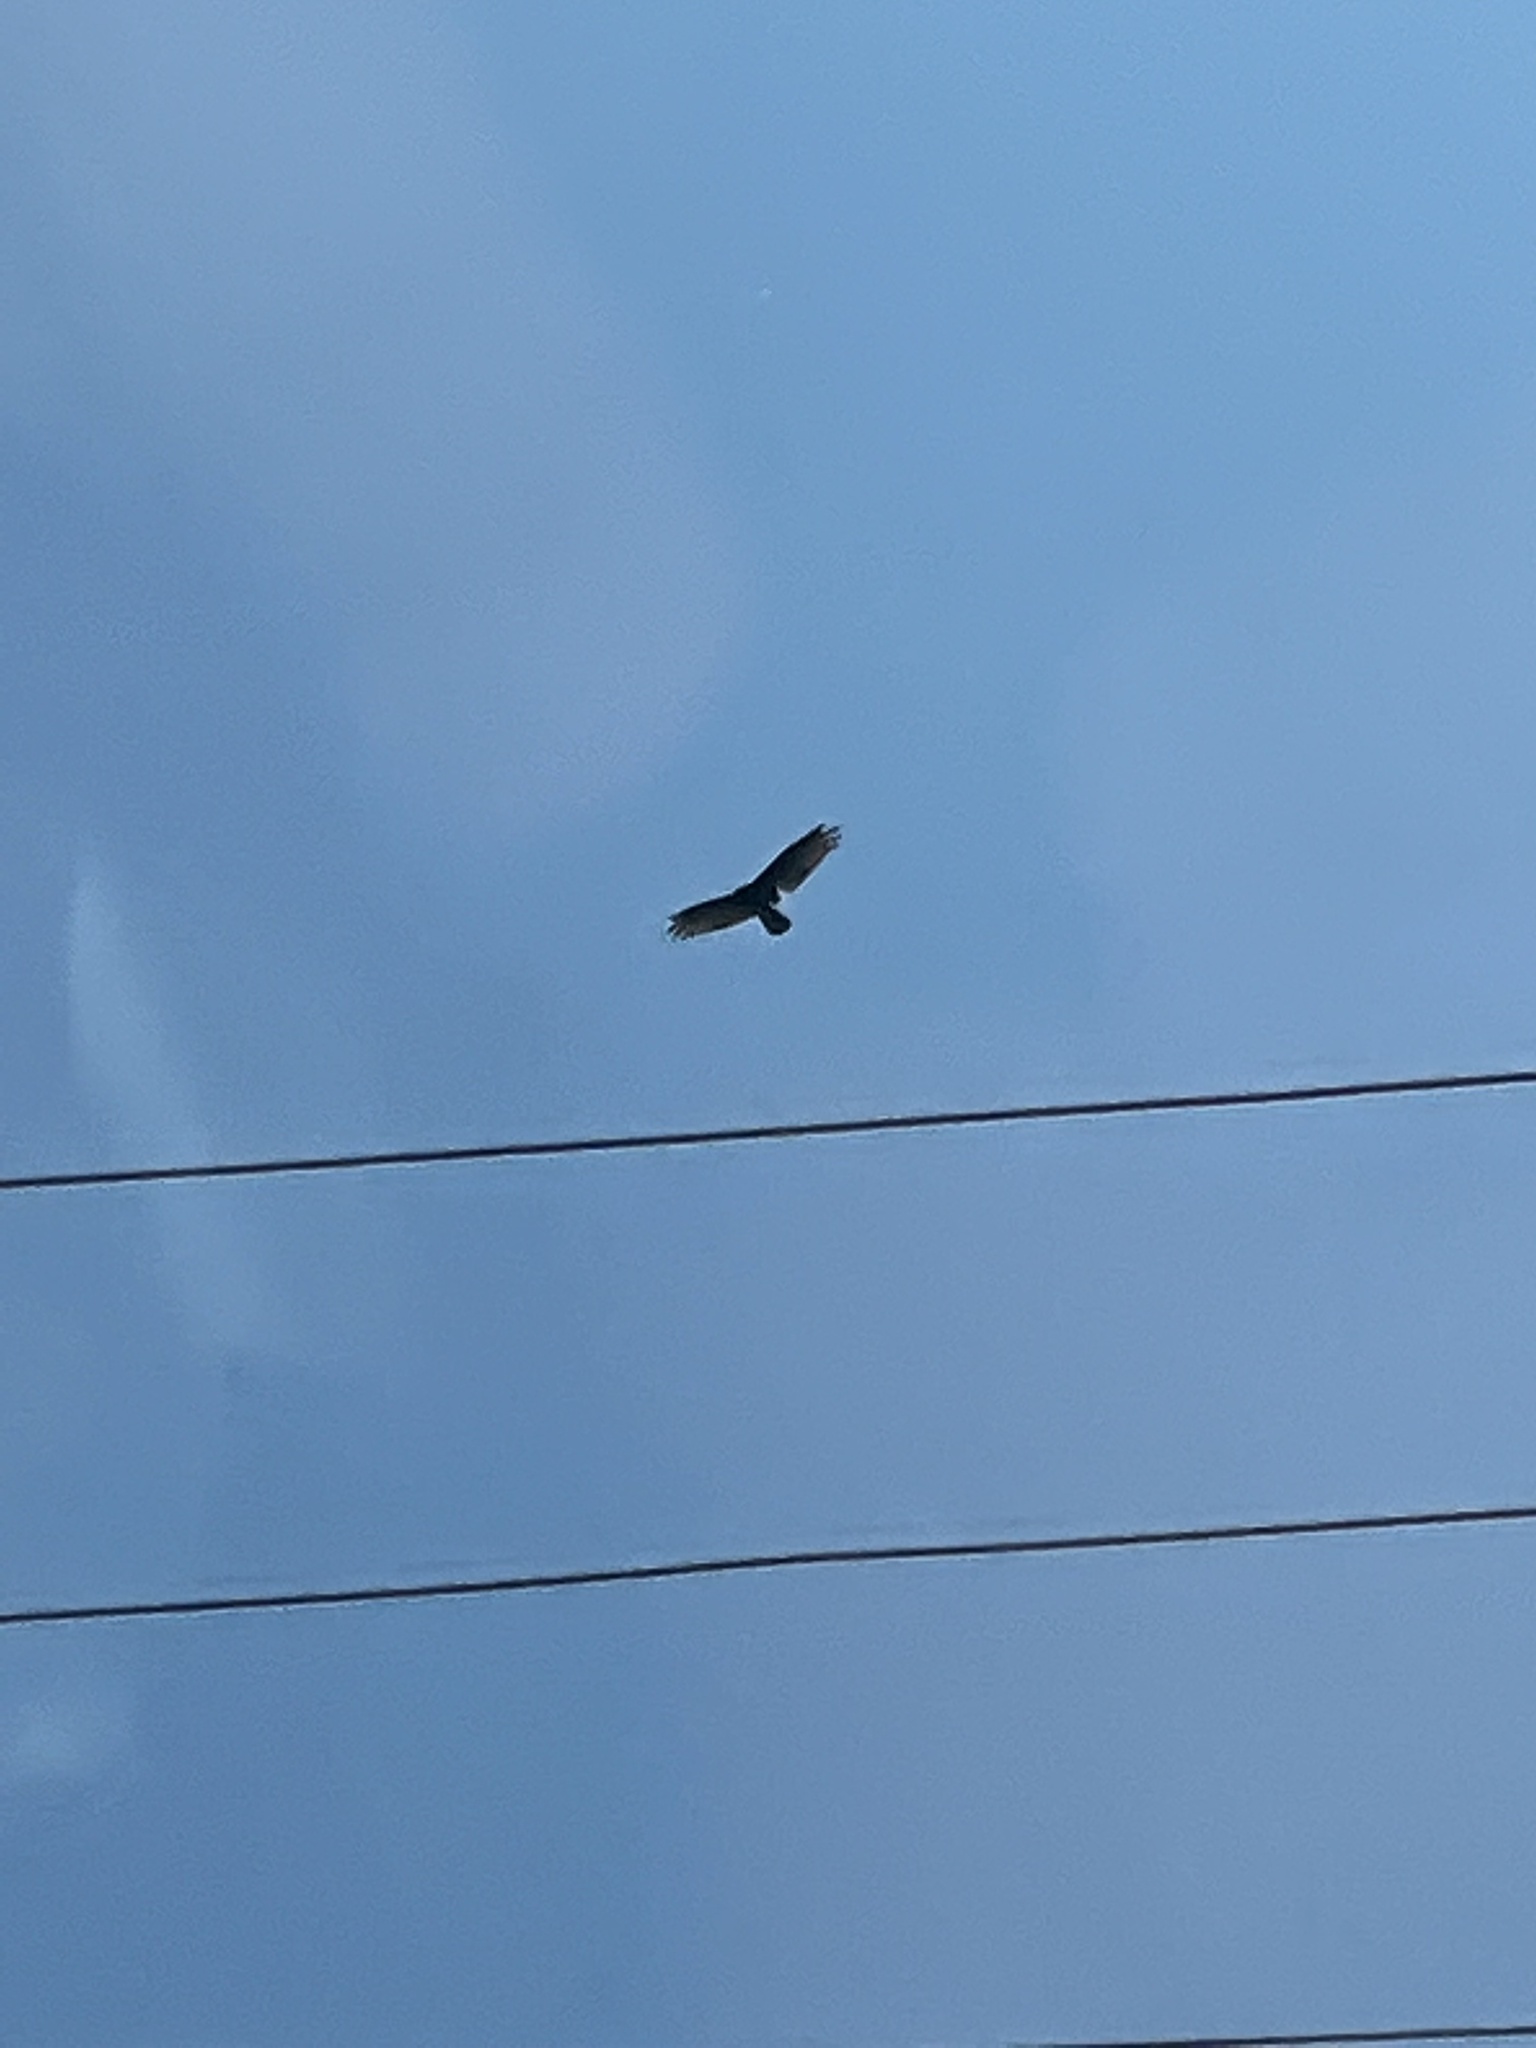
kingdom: Animalia
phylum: Chordata
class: Aves
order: Accipitriformes
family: Cathartidae
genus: Cathartes
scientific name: Cathartes aura
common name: Turkey vulture
